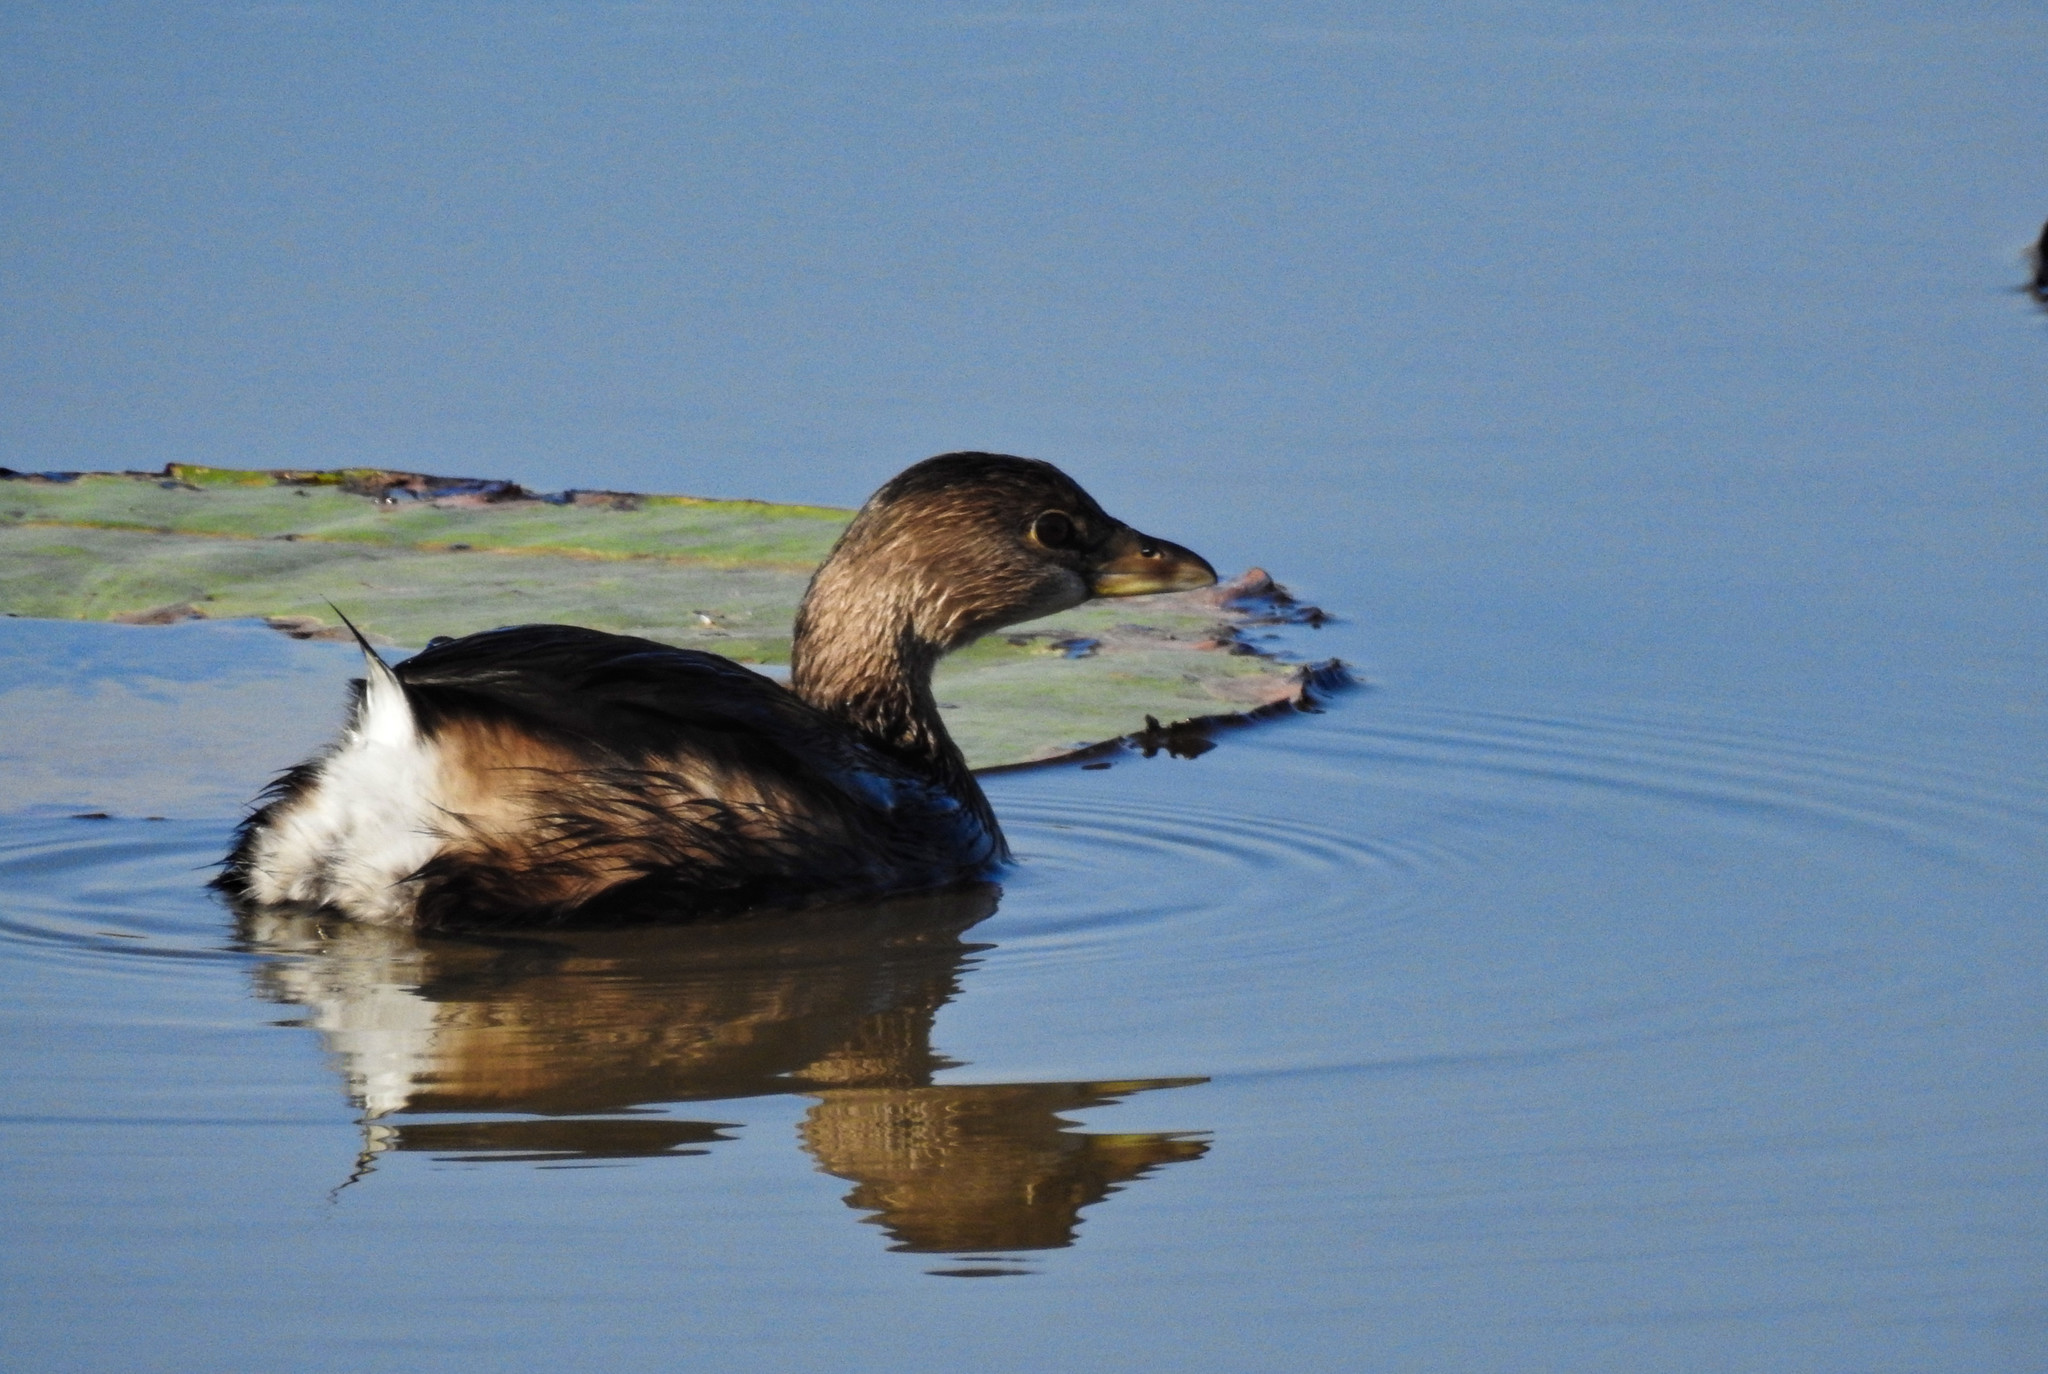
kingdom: Animalia
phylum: Chordata
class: Aves
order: Podicipediformes
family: Podicipedidae
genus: Podilymbus
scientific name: Podilymbus podiceps
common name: Pied-billed grebe
